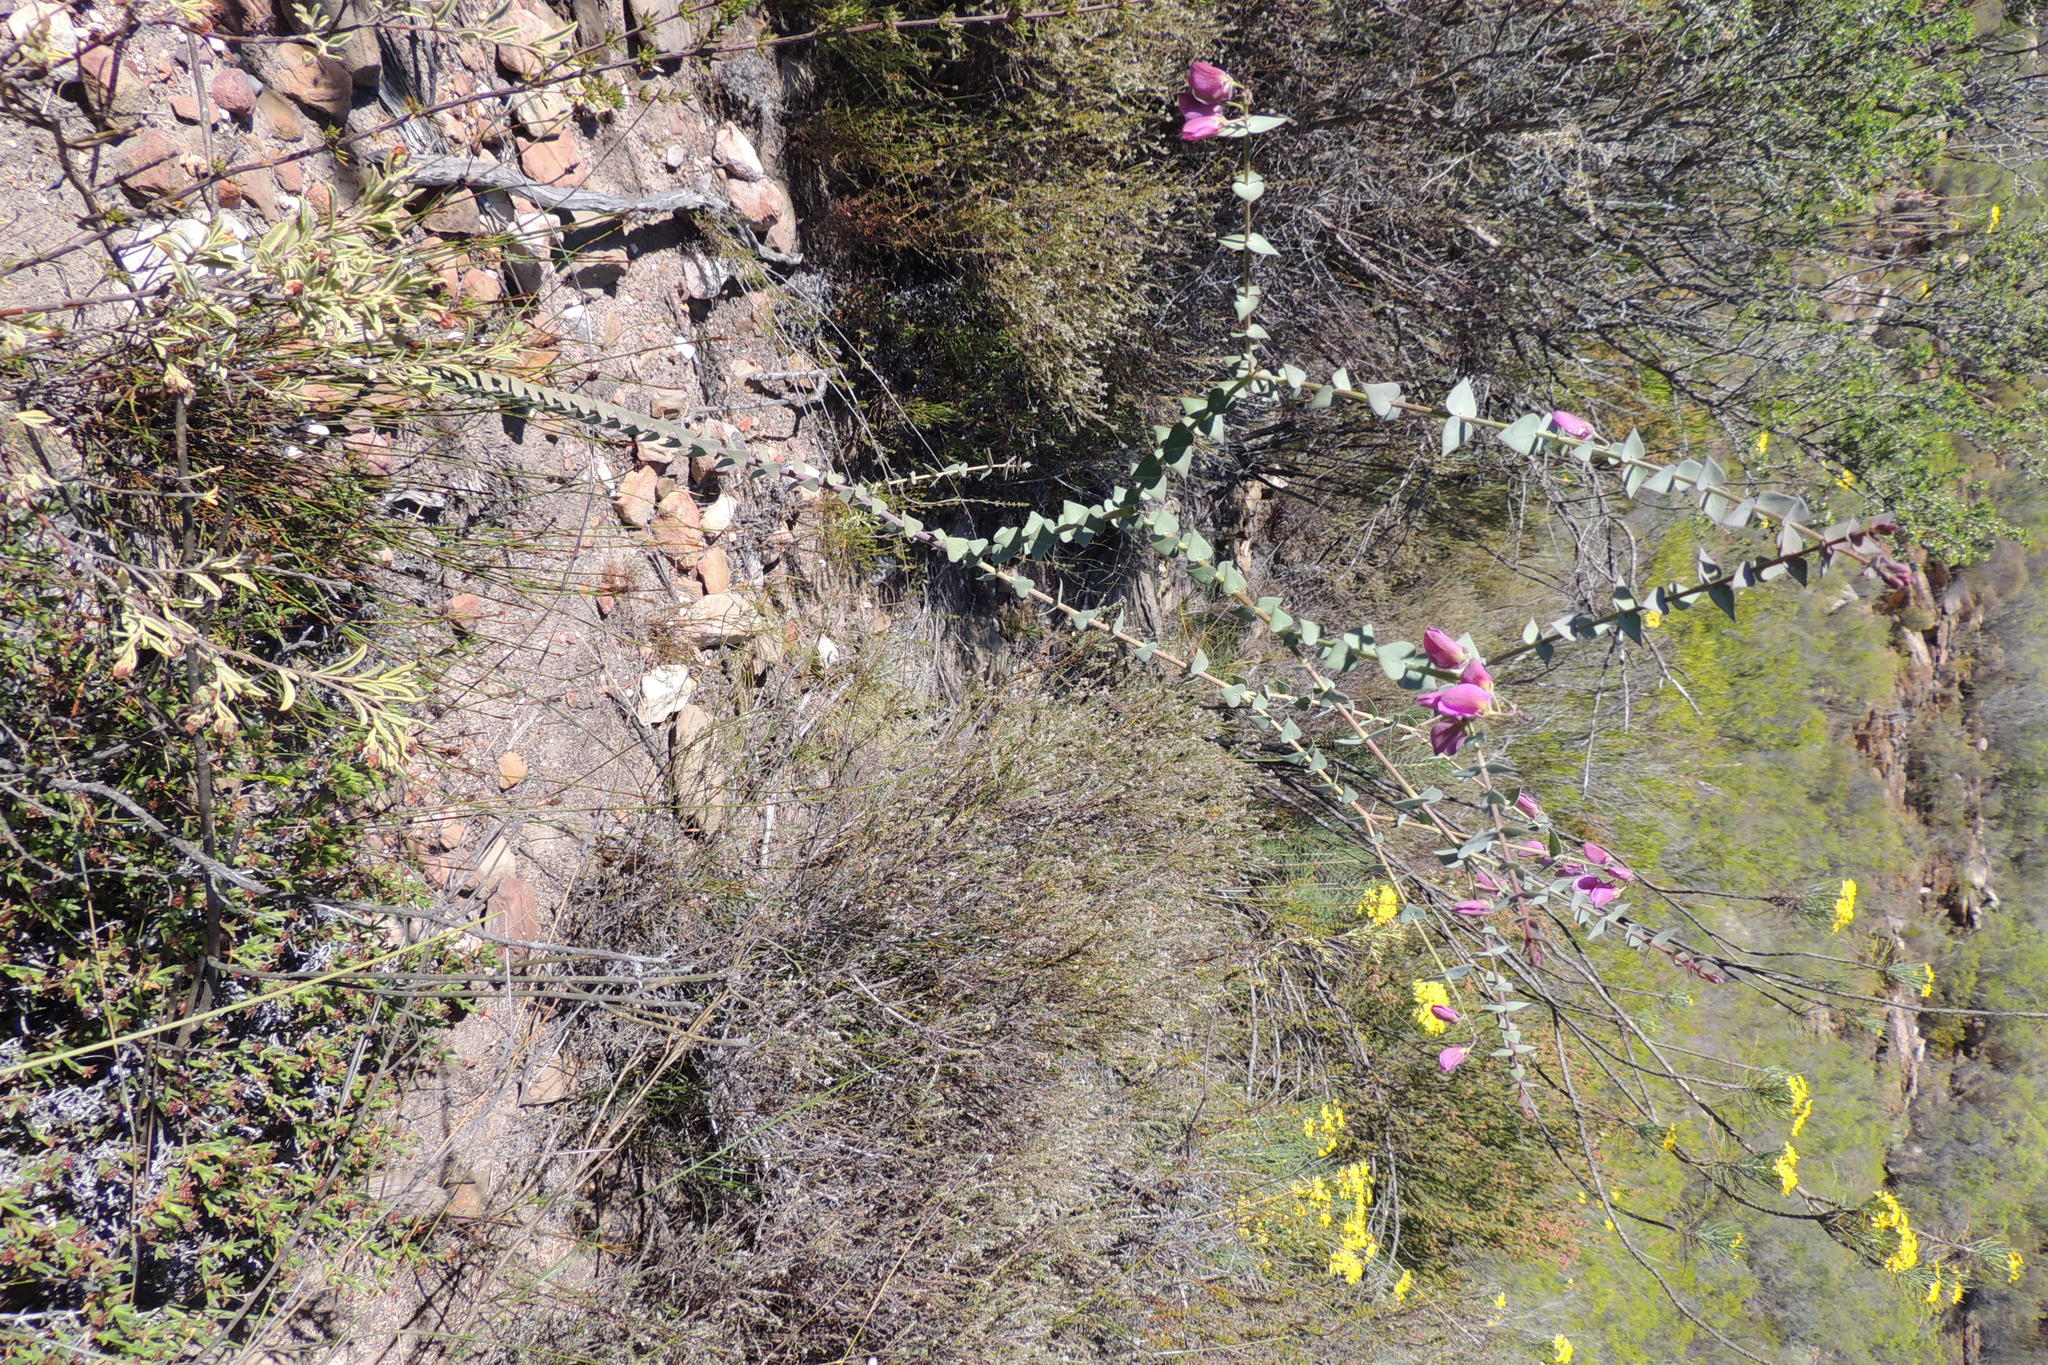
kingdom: Plantae
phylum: Tracheophyta
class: Magnoliopsida
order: Fabales
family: Polygalaceae
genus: Polygala
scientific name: Polygala fruticosa
